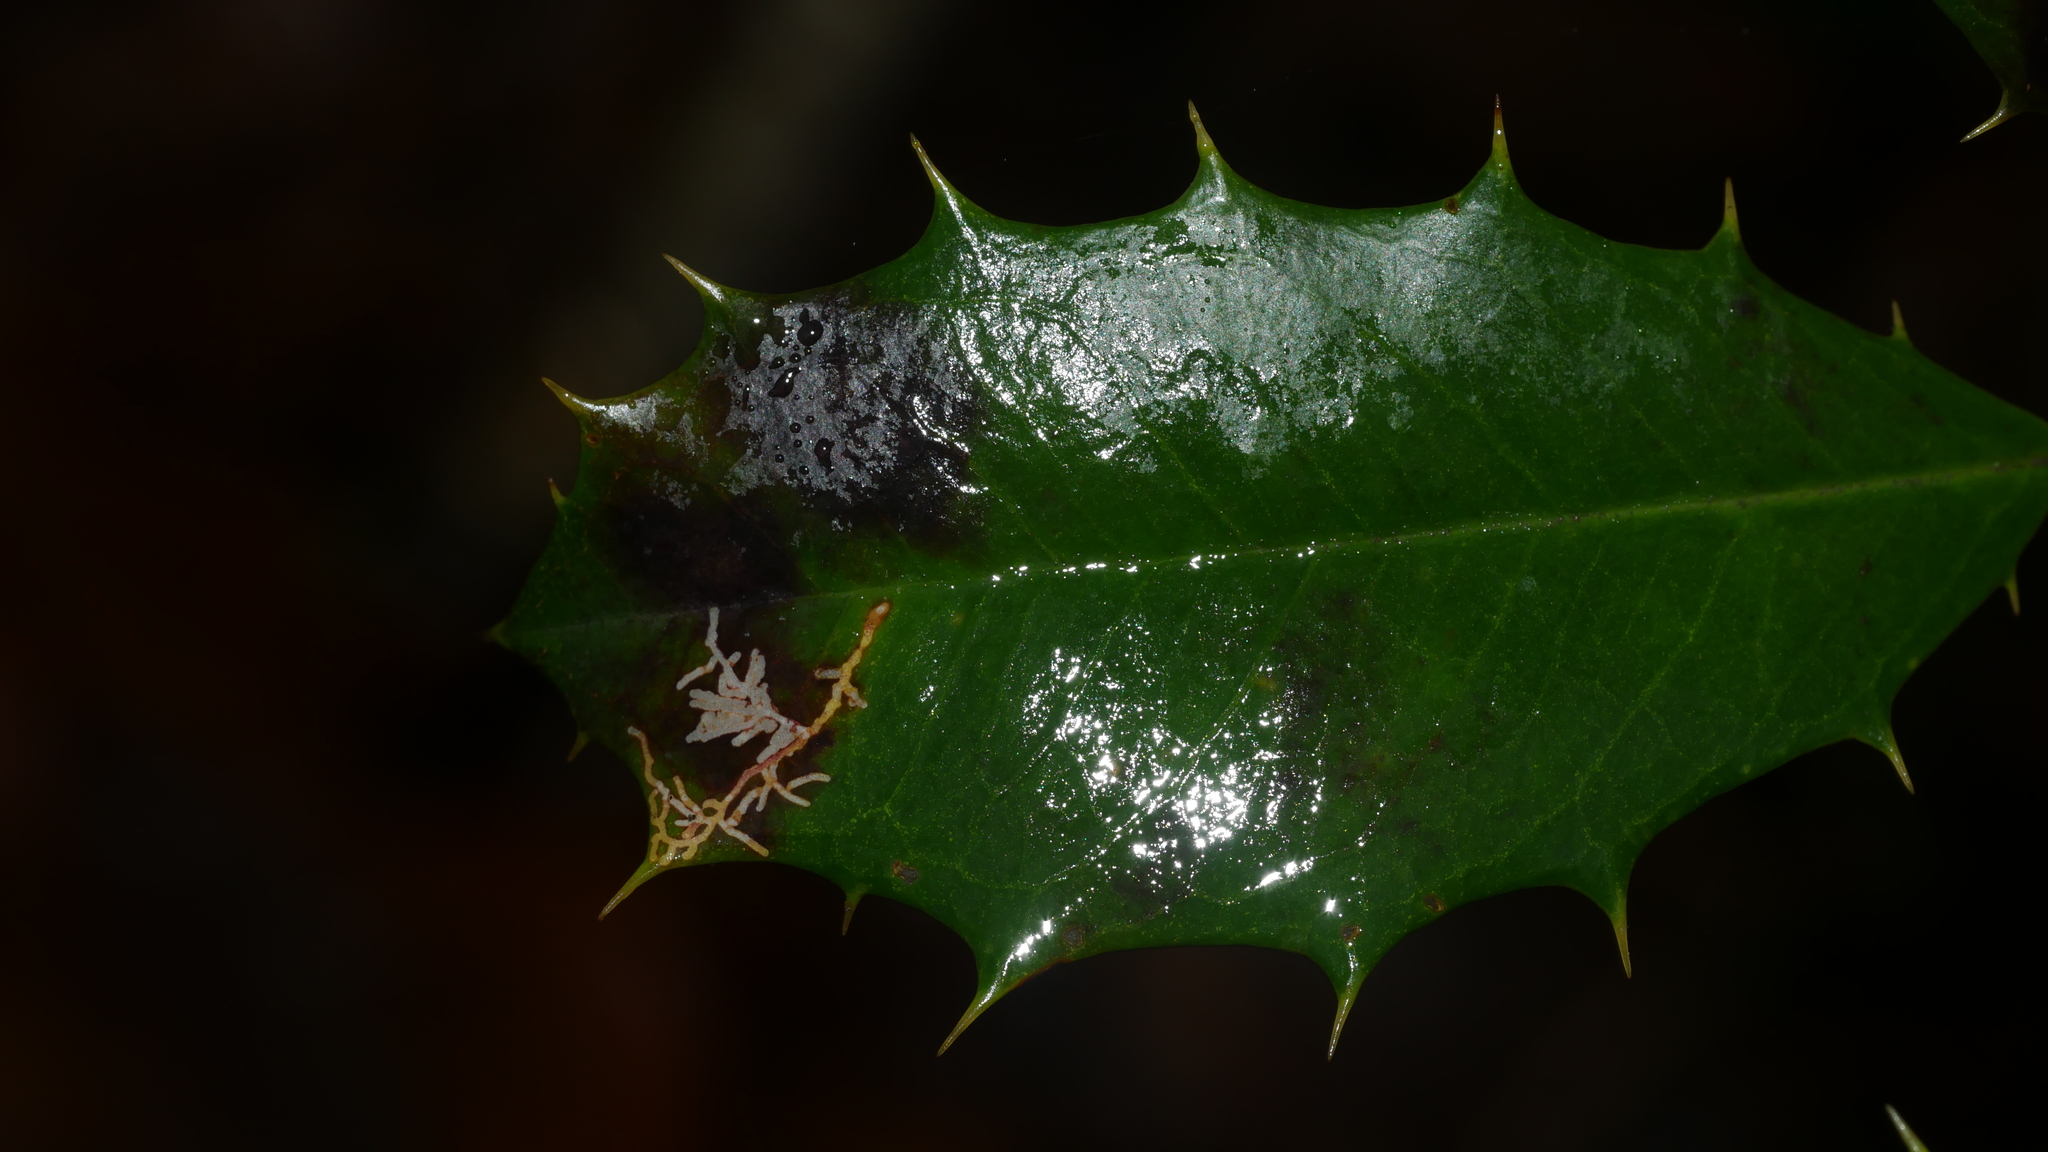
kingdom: Animalia
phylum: Arthropoda
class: Insecta
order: Lepidoptera
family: Tortricidae
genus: Rhopobota
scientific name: Rhopobota
